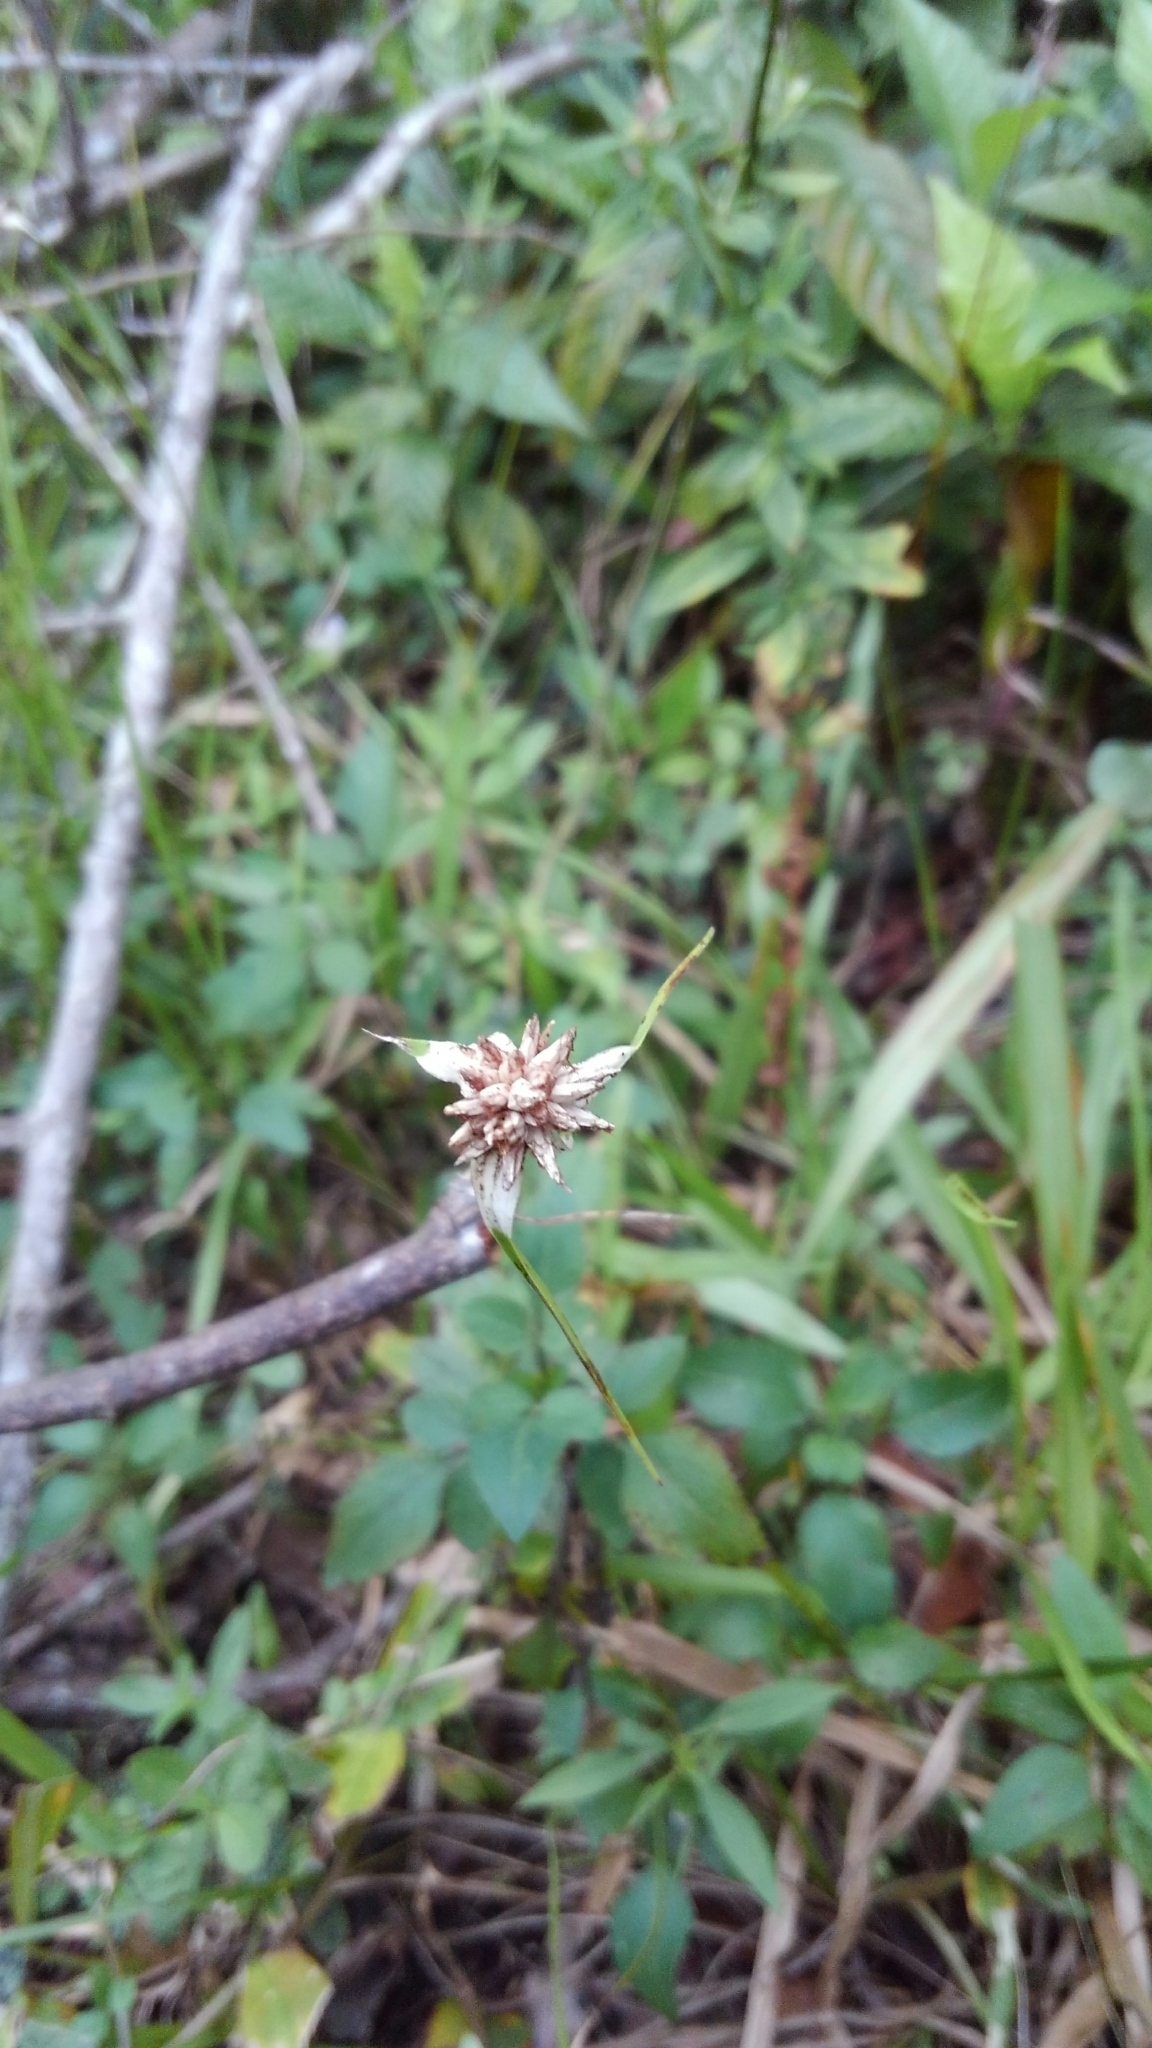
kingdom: Plantae
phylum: Tracheophyta
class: Liliopsida
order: Poales
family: Cyperaceae
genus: Rhynchospora
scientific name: Rhynchospora colorata
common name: Star sedge
